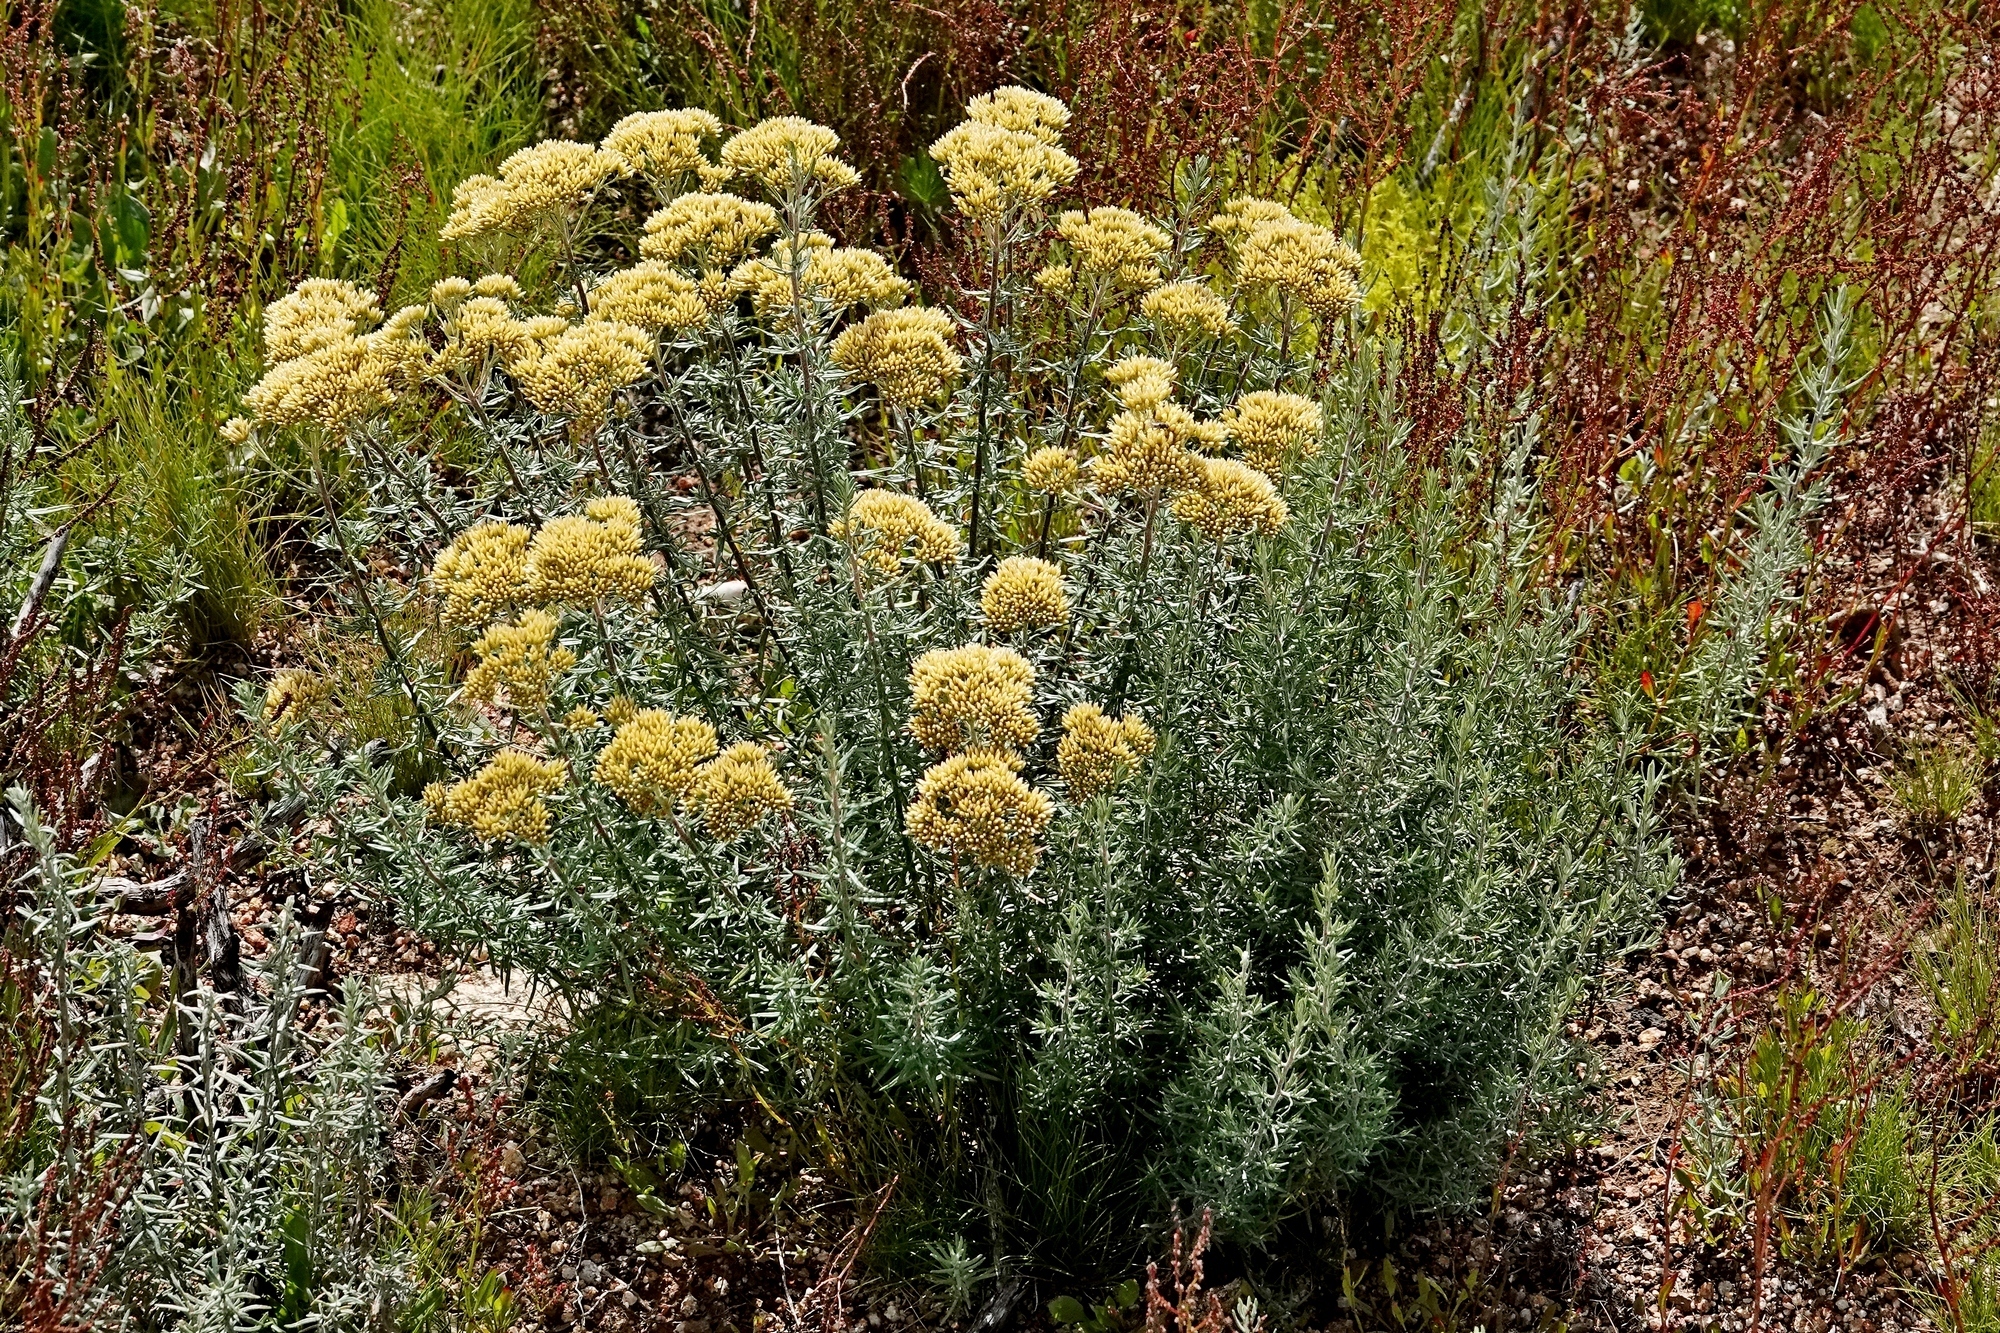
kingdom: Plantae
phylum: Tracheophyta
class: Magnoliopsida
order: Asterales
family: Asteraceae
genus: Cassinia
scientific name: Cassinia monticola
